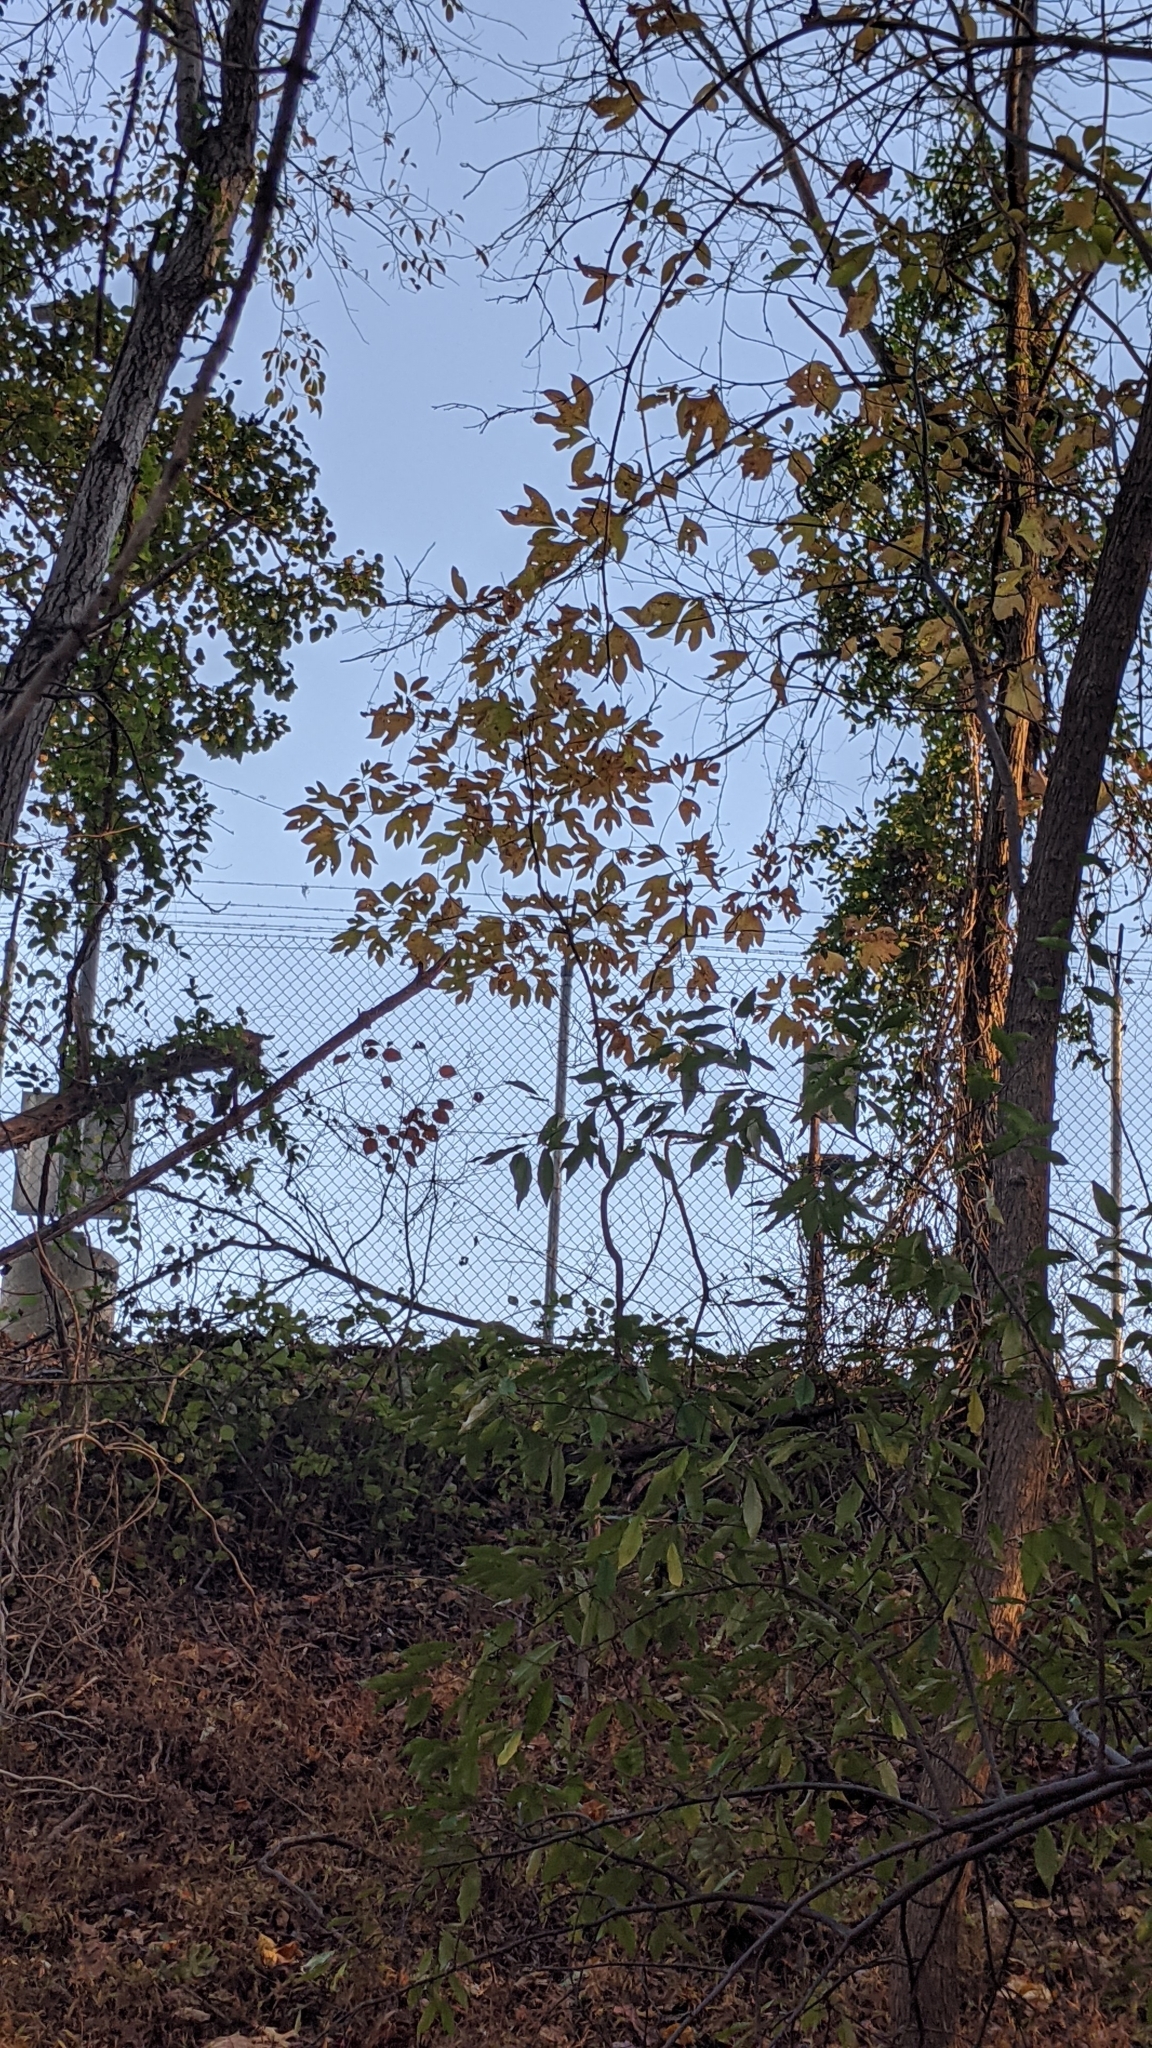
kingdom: Plantae
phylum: Tracheophyta
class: Magnoliopsida
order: Laurales
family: Lauraceae
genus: Sassafras
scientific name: Sassafras albidum
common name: Sassafras
